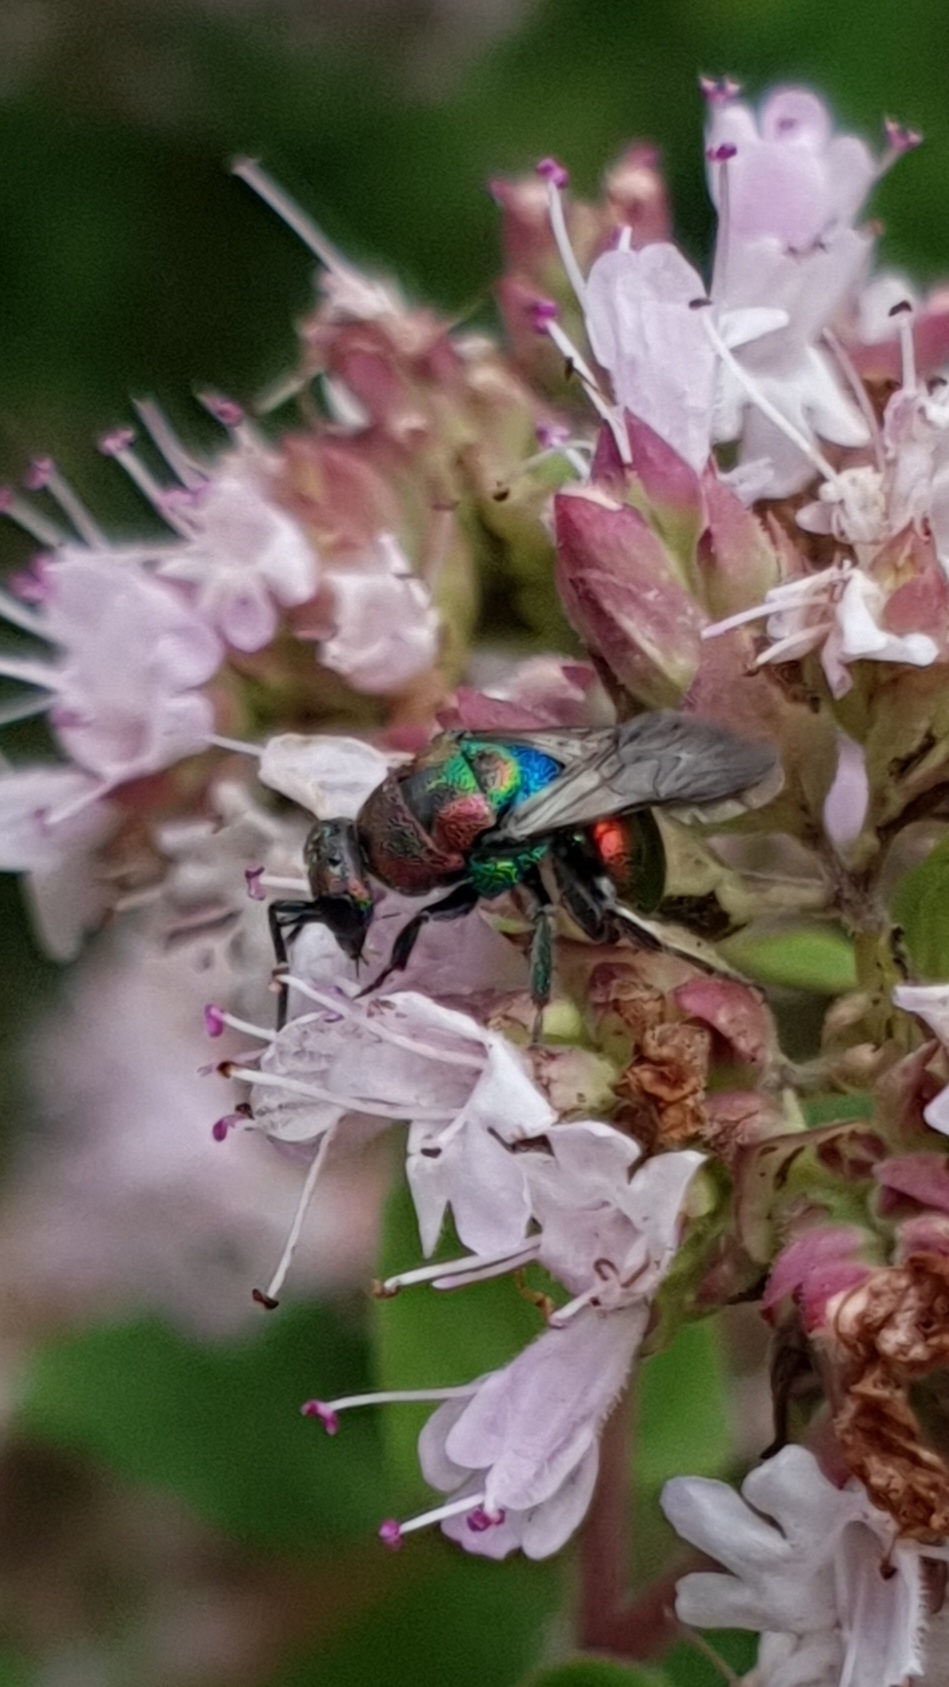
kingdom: Animalia
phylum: Arthropoda
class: Insecta
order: Hymenoptera
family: Chrysididae
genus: Hedychrum
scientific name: Hedychrum rutilans
